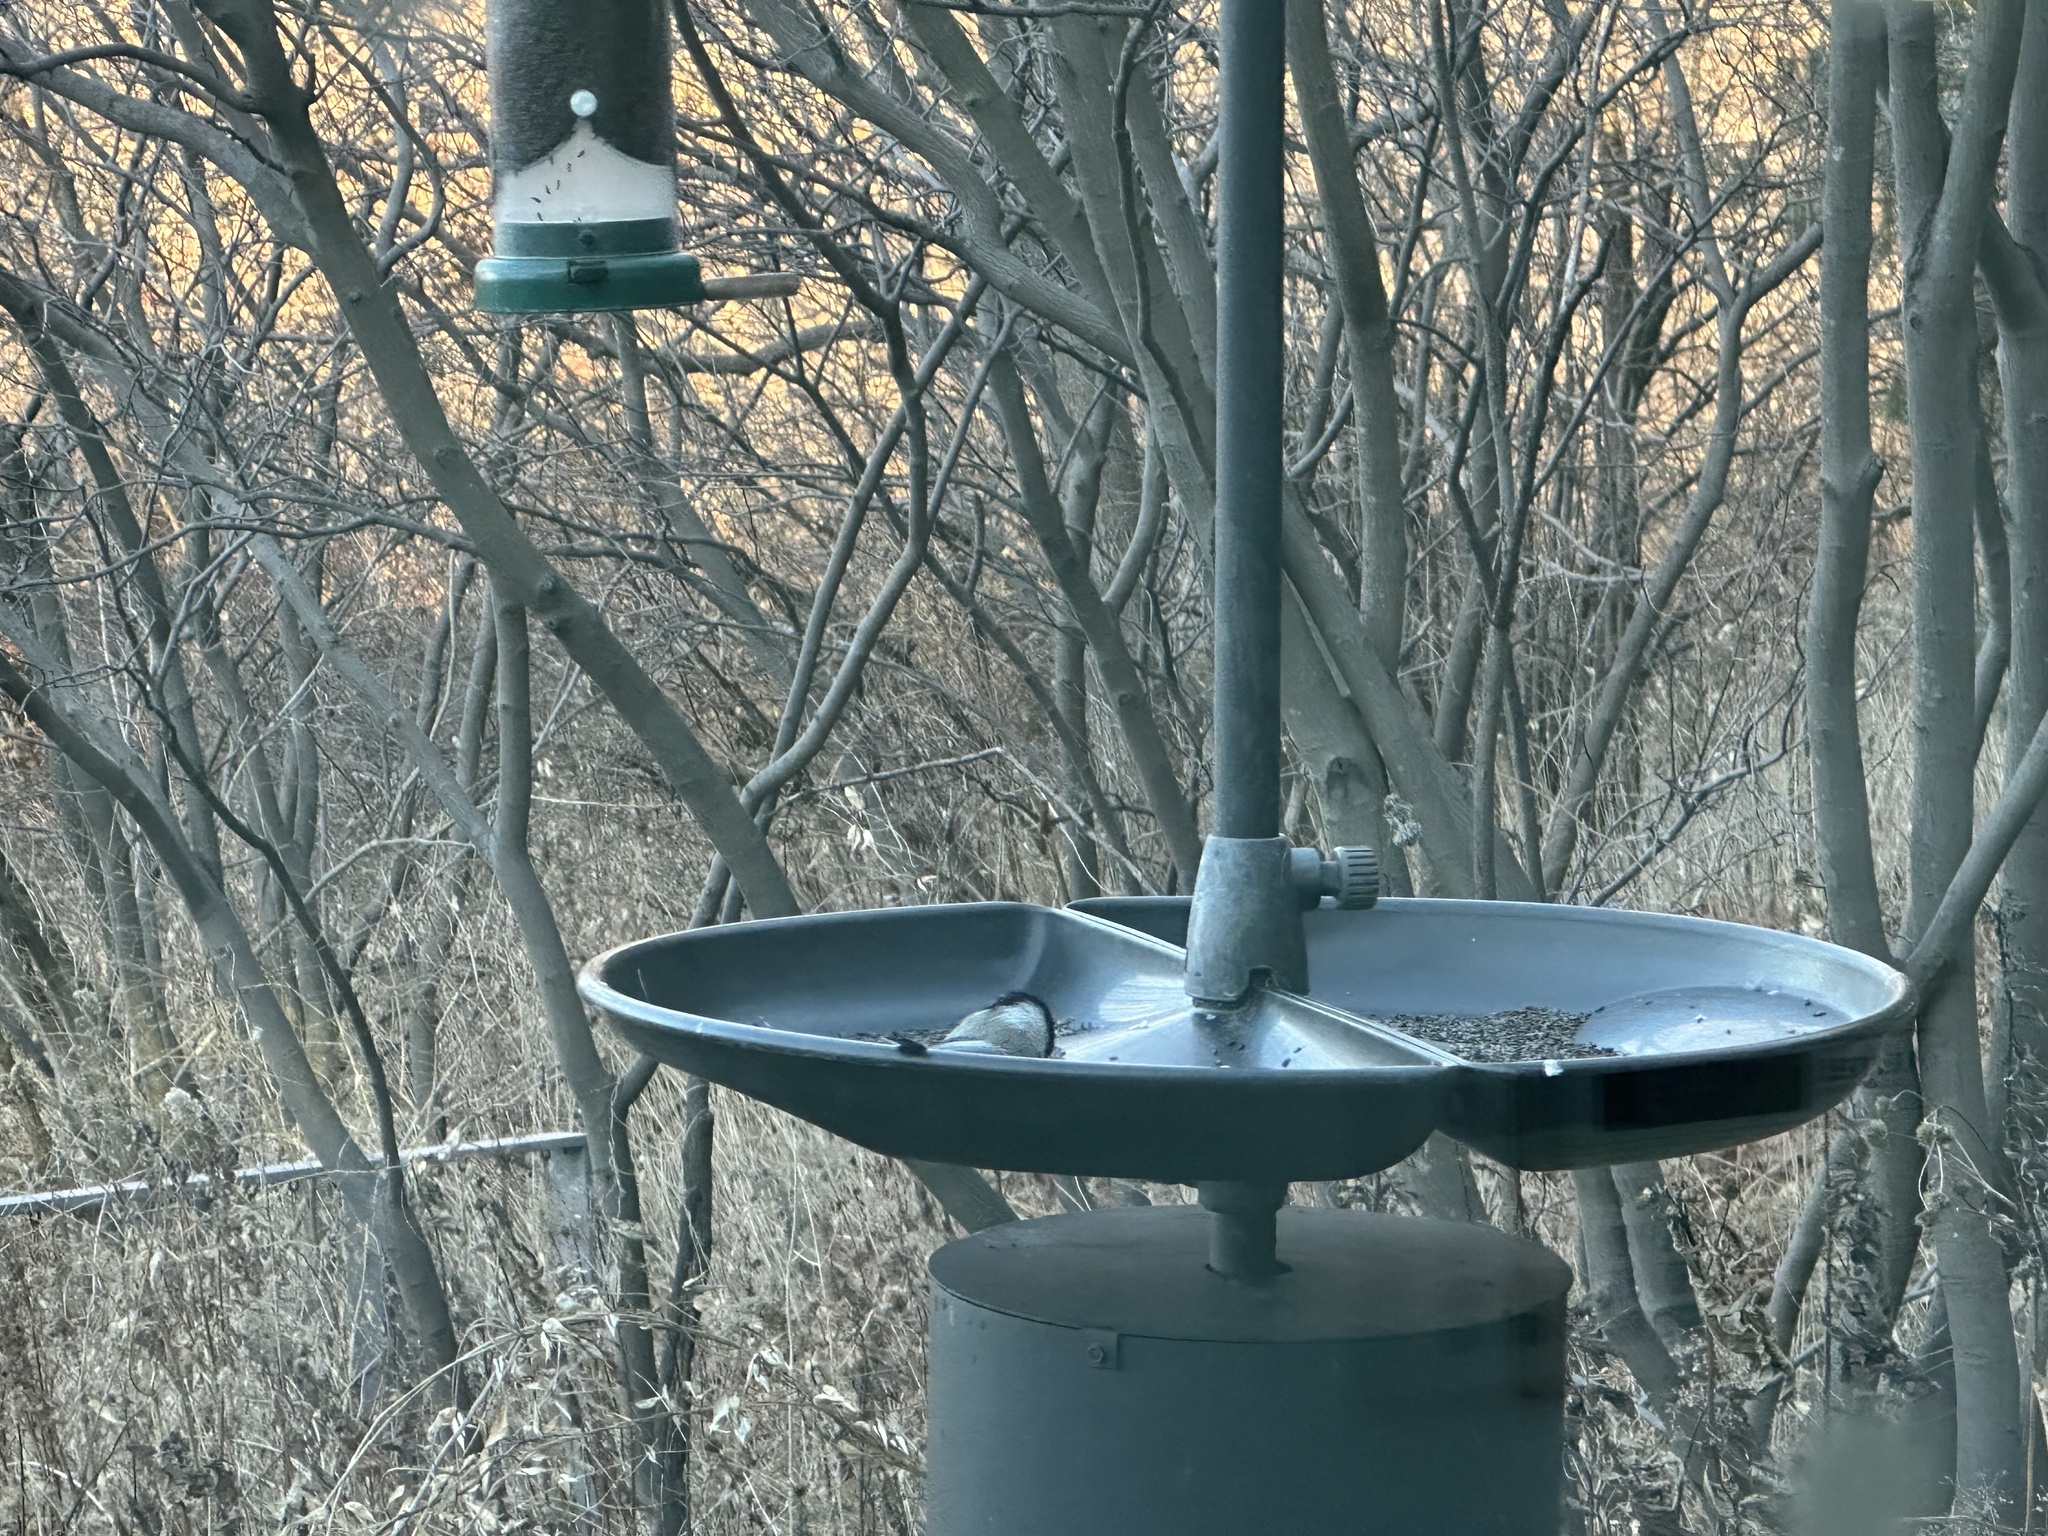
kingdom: Animalia
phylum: Chordata
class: Aves
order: Passeriformes
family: Paridae
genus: Poecile
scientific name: Poecile atricapillus
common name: Black-capped chickadee
